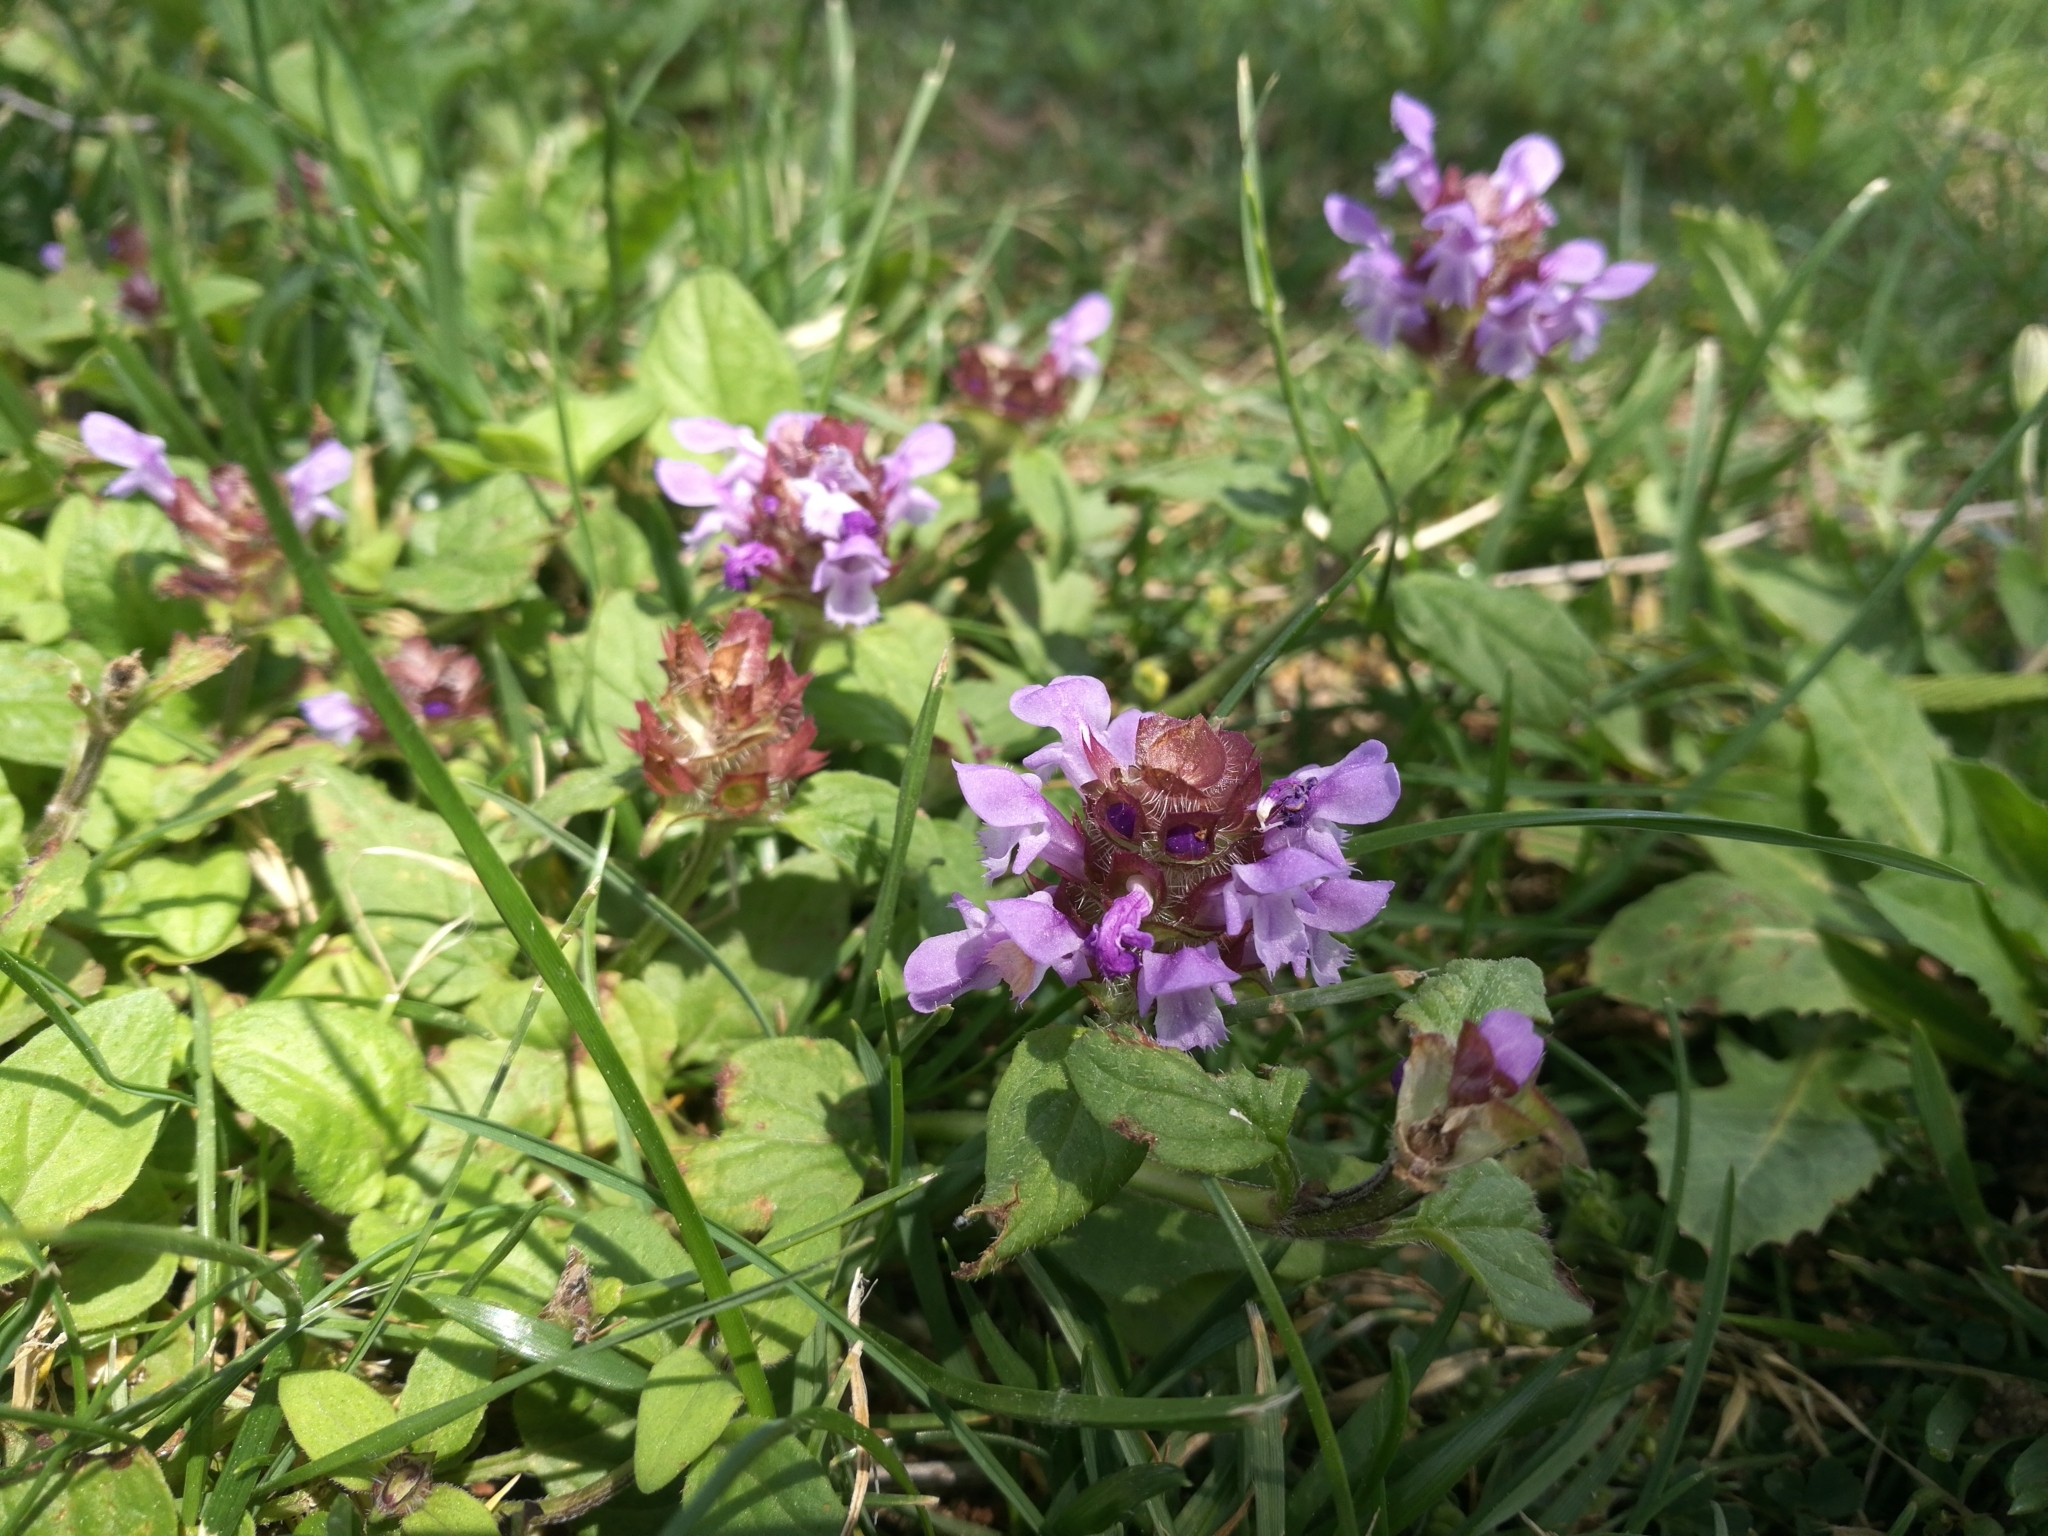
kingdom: Plantae
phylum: Tracheophyta
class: Magnoliopsida
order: Lamiales
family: Lamiaceae
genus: Prunella
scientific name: Prunella vulgaris
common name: Heal-all
